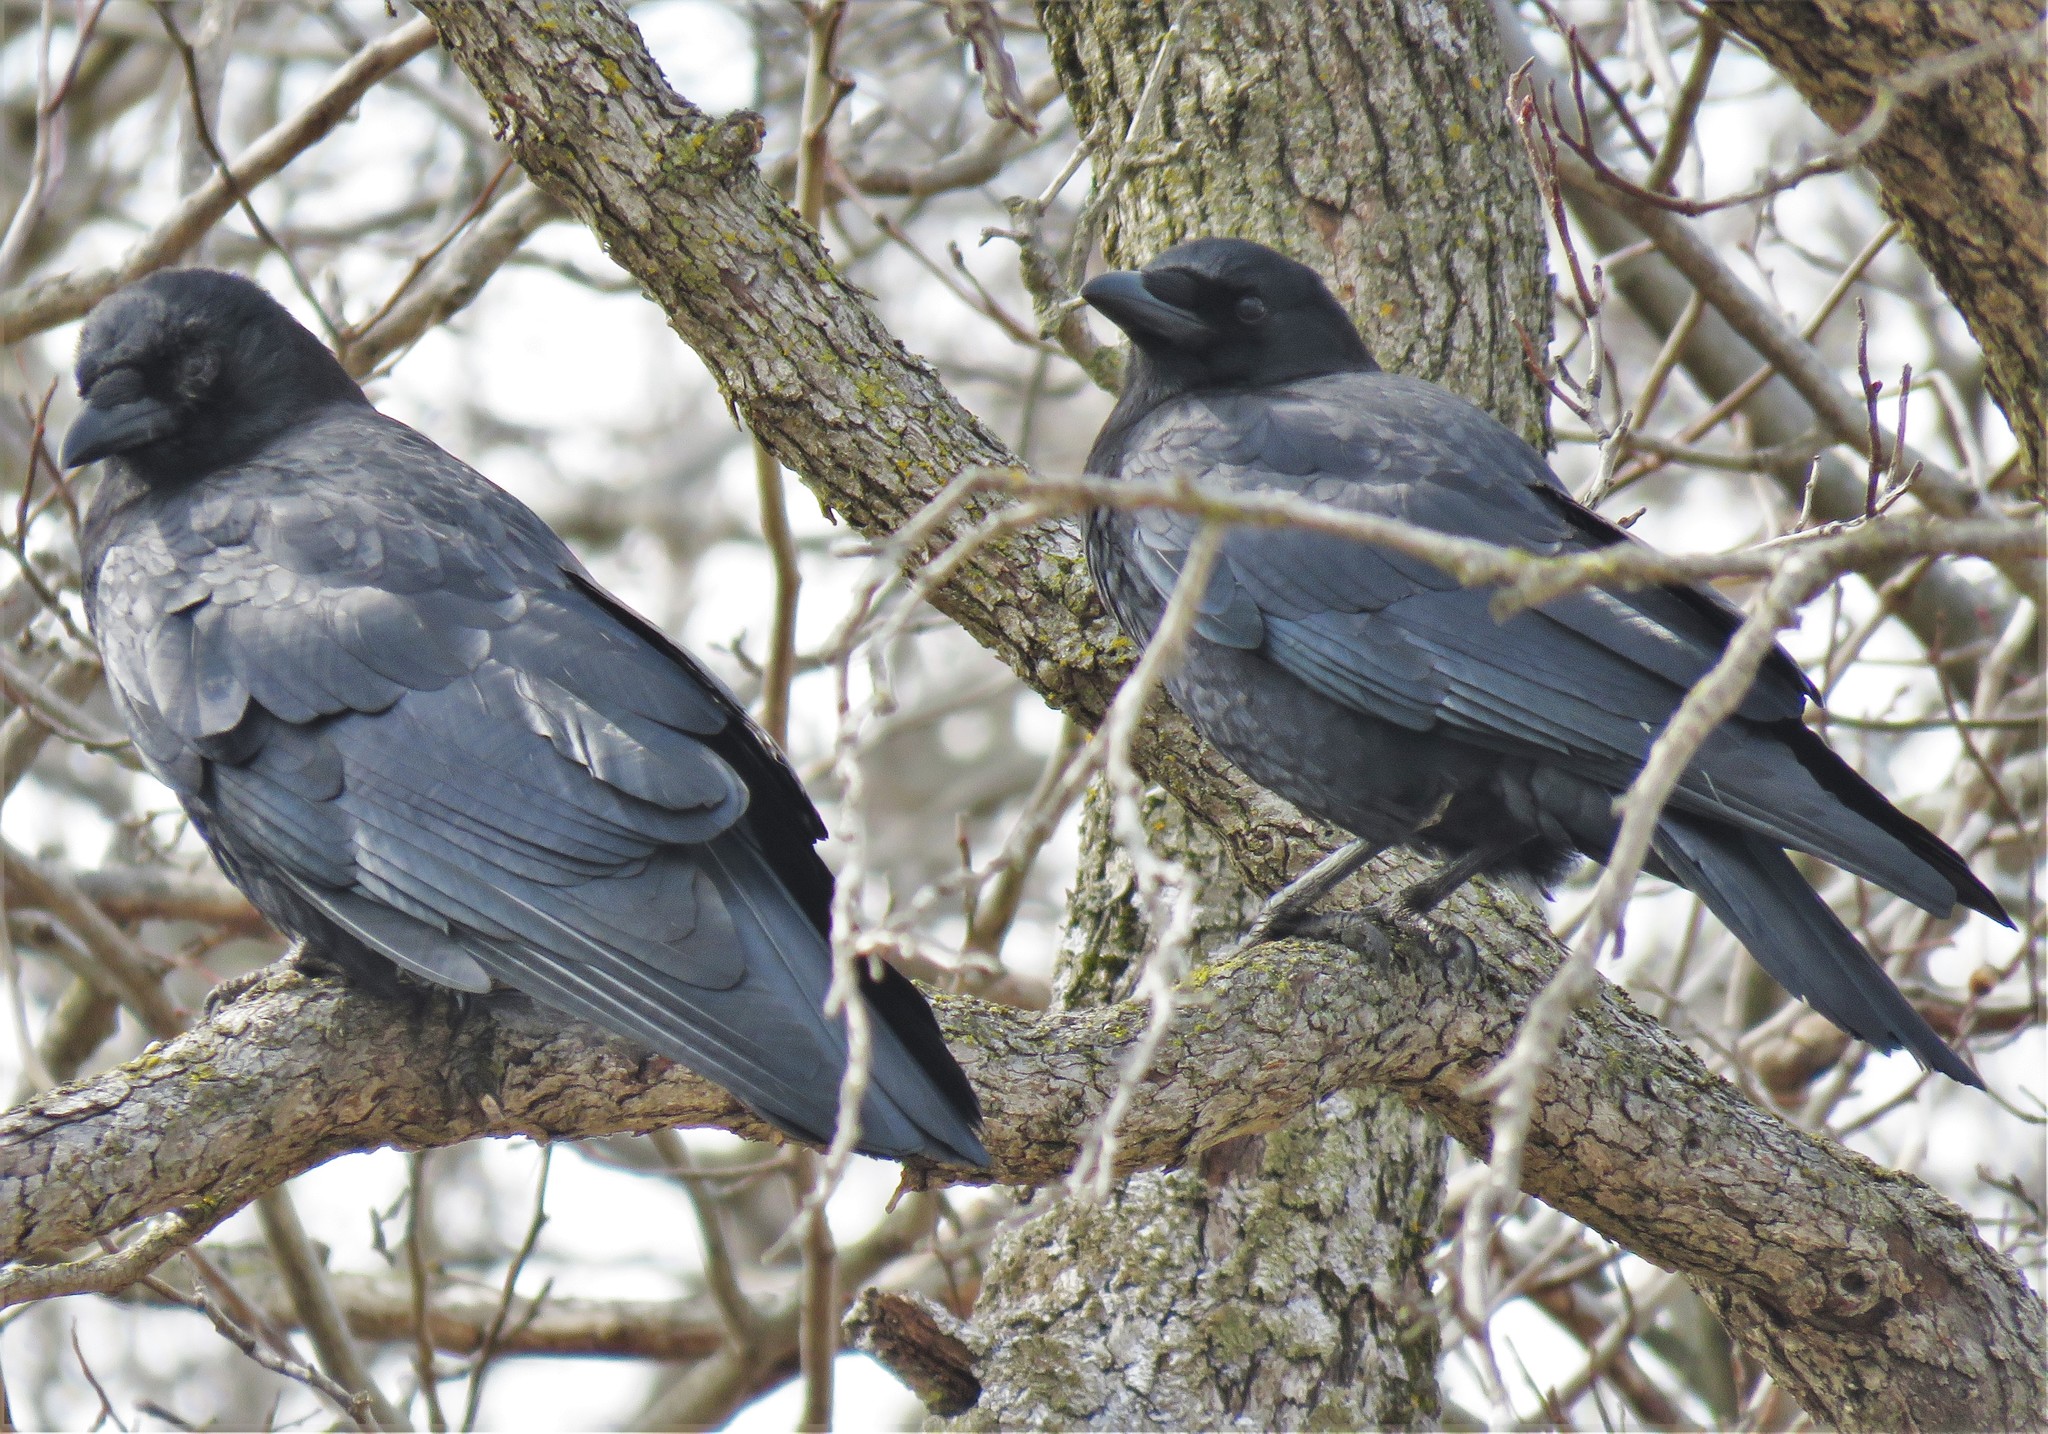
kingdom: Animalia
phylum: Chordata
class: Aves
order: Passeriformes
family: Corvidae
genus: Corvus
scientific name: Corvus brachyrhynchos
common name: American crow
